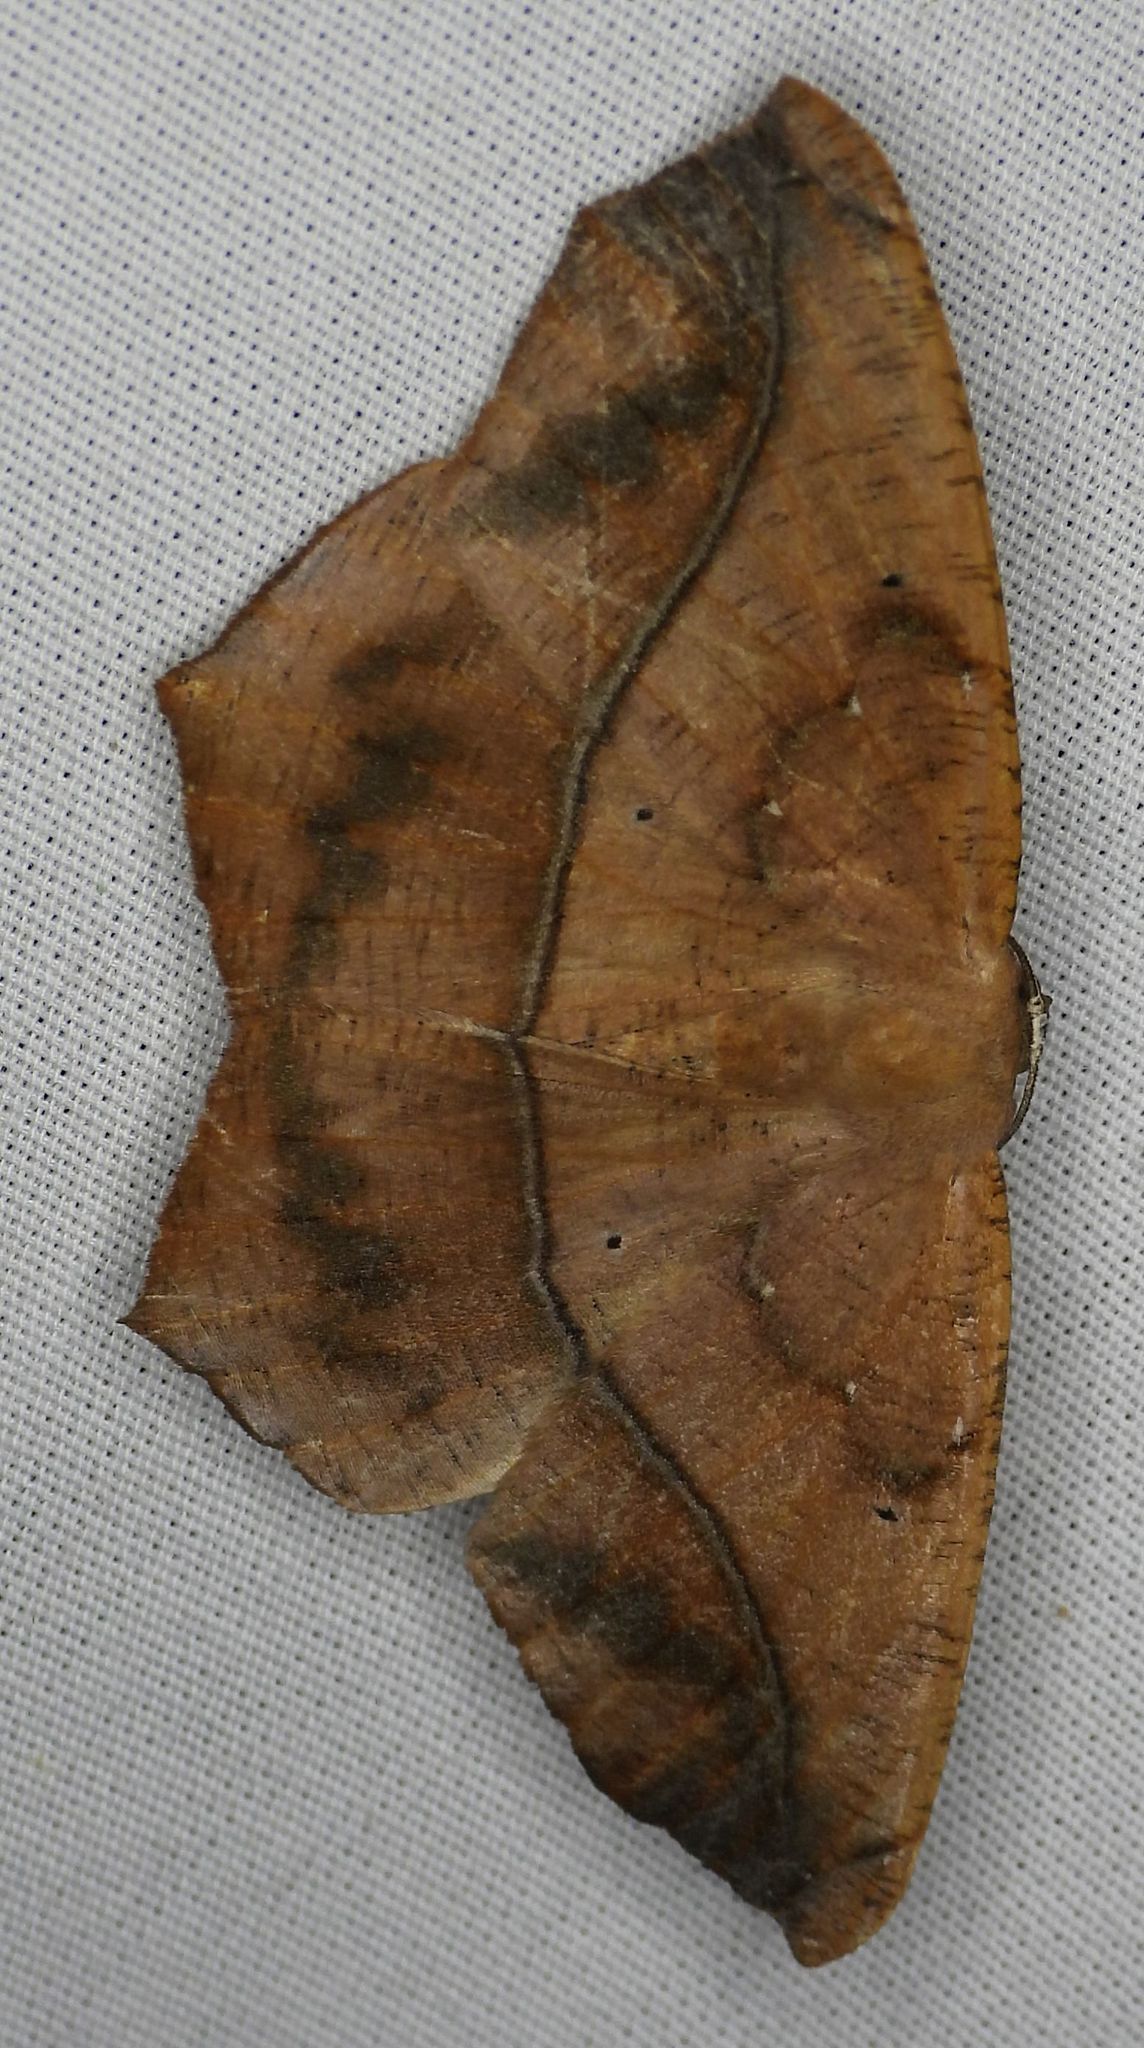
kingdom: Animalia
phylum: Arthropoda
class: Insecta
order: Lepidoptera
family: Geometridae
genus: Prochoerodes
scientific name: Prochoerodes lineola
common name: Large maple spanworm
